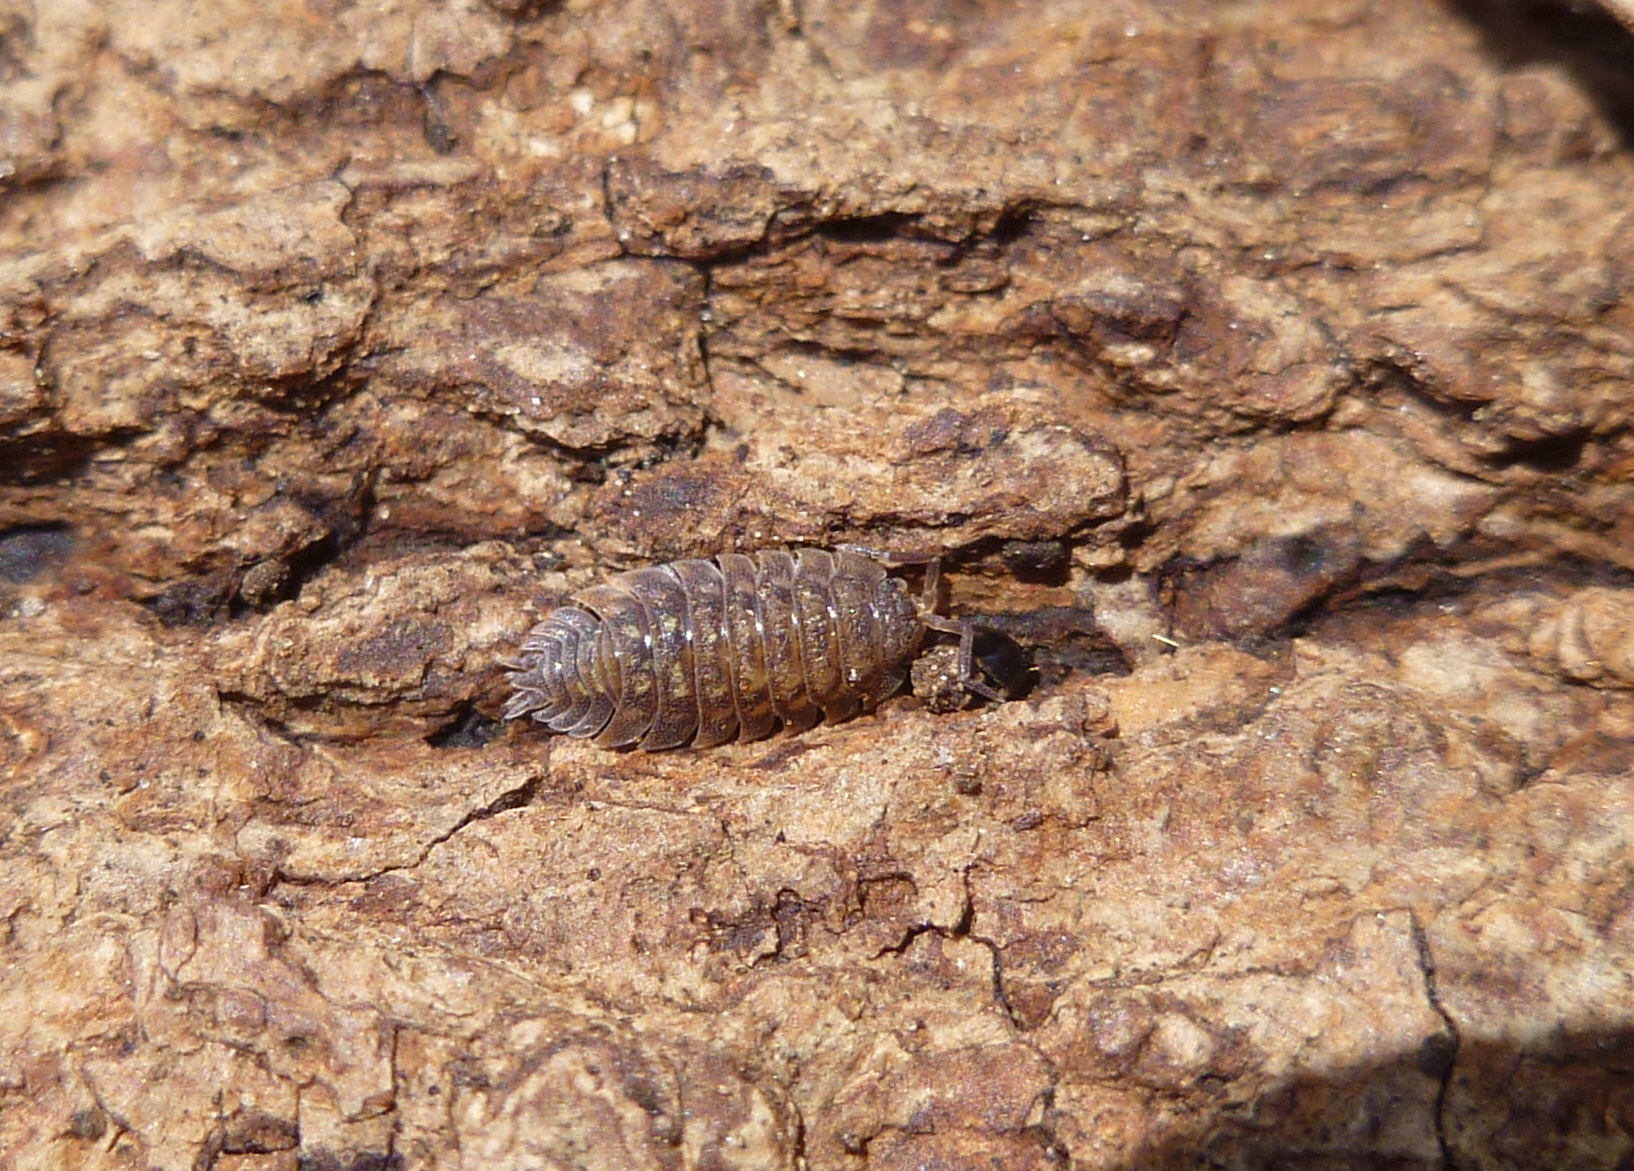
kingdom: Animalia
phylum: Arthropoda
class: Malacostraca
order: Isopoda
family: Porcellionidae
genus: Porcellio
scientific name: Porcellio spinicornis
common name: Painted woodlouse
